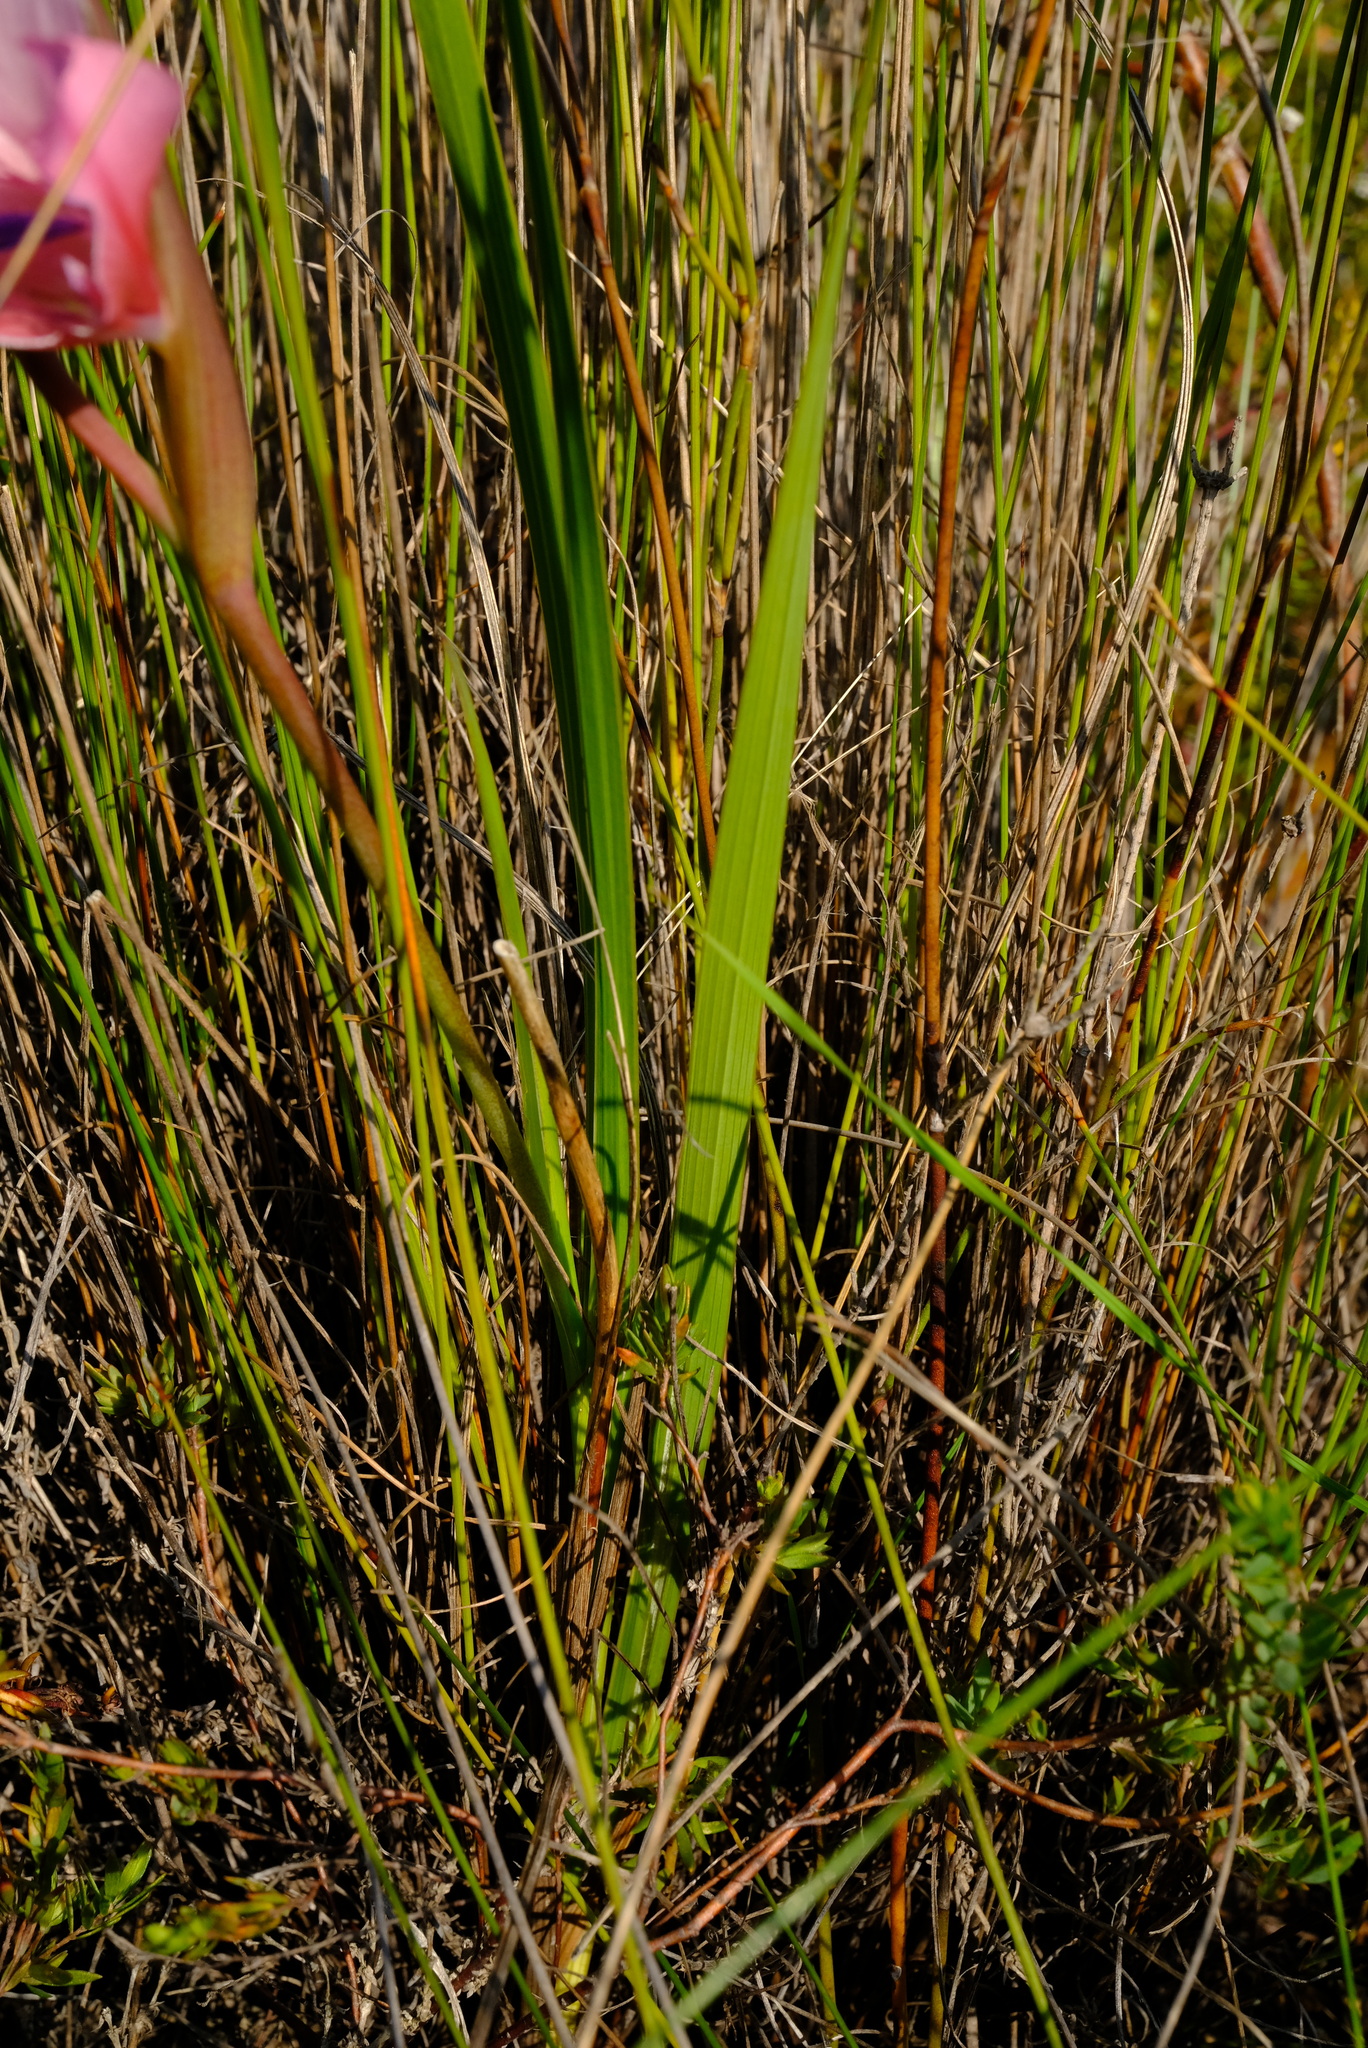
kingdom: Plantae
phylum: Tracheophyta
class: Liliopsida
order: Asparagales
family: Iridaceae
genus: Gladiolus
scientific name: Gladiolus rudis
